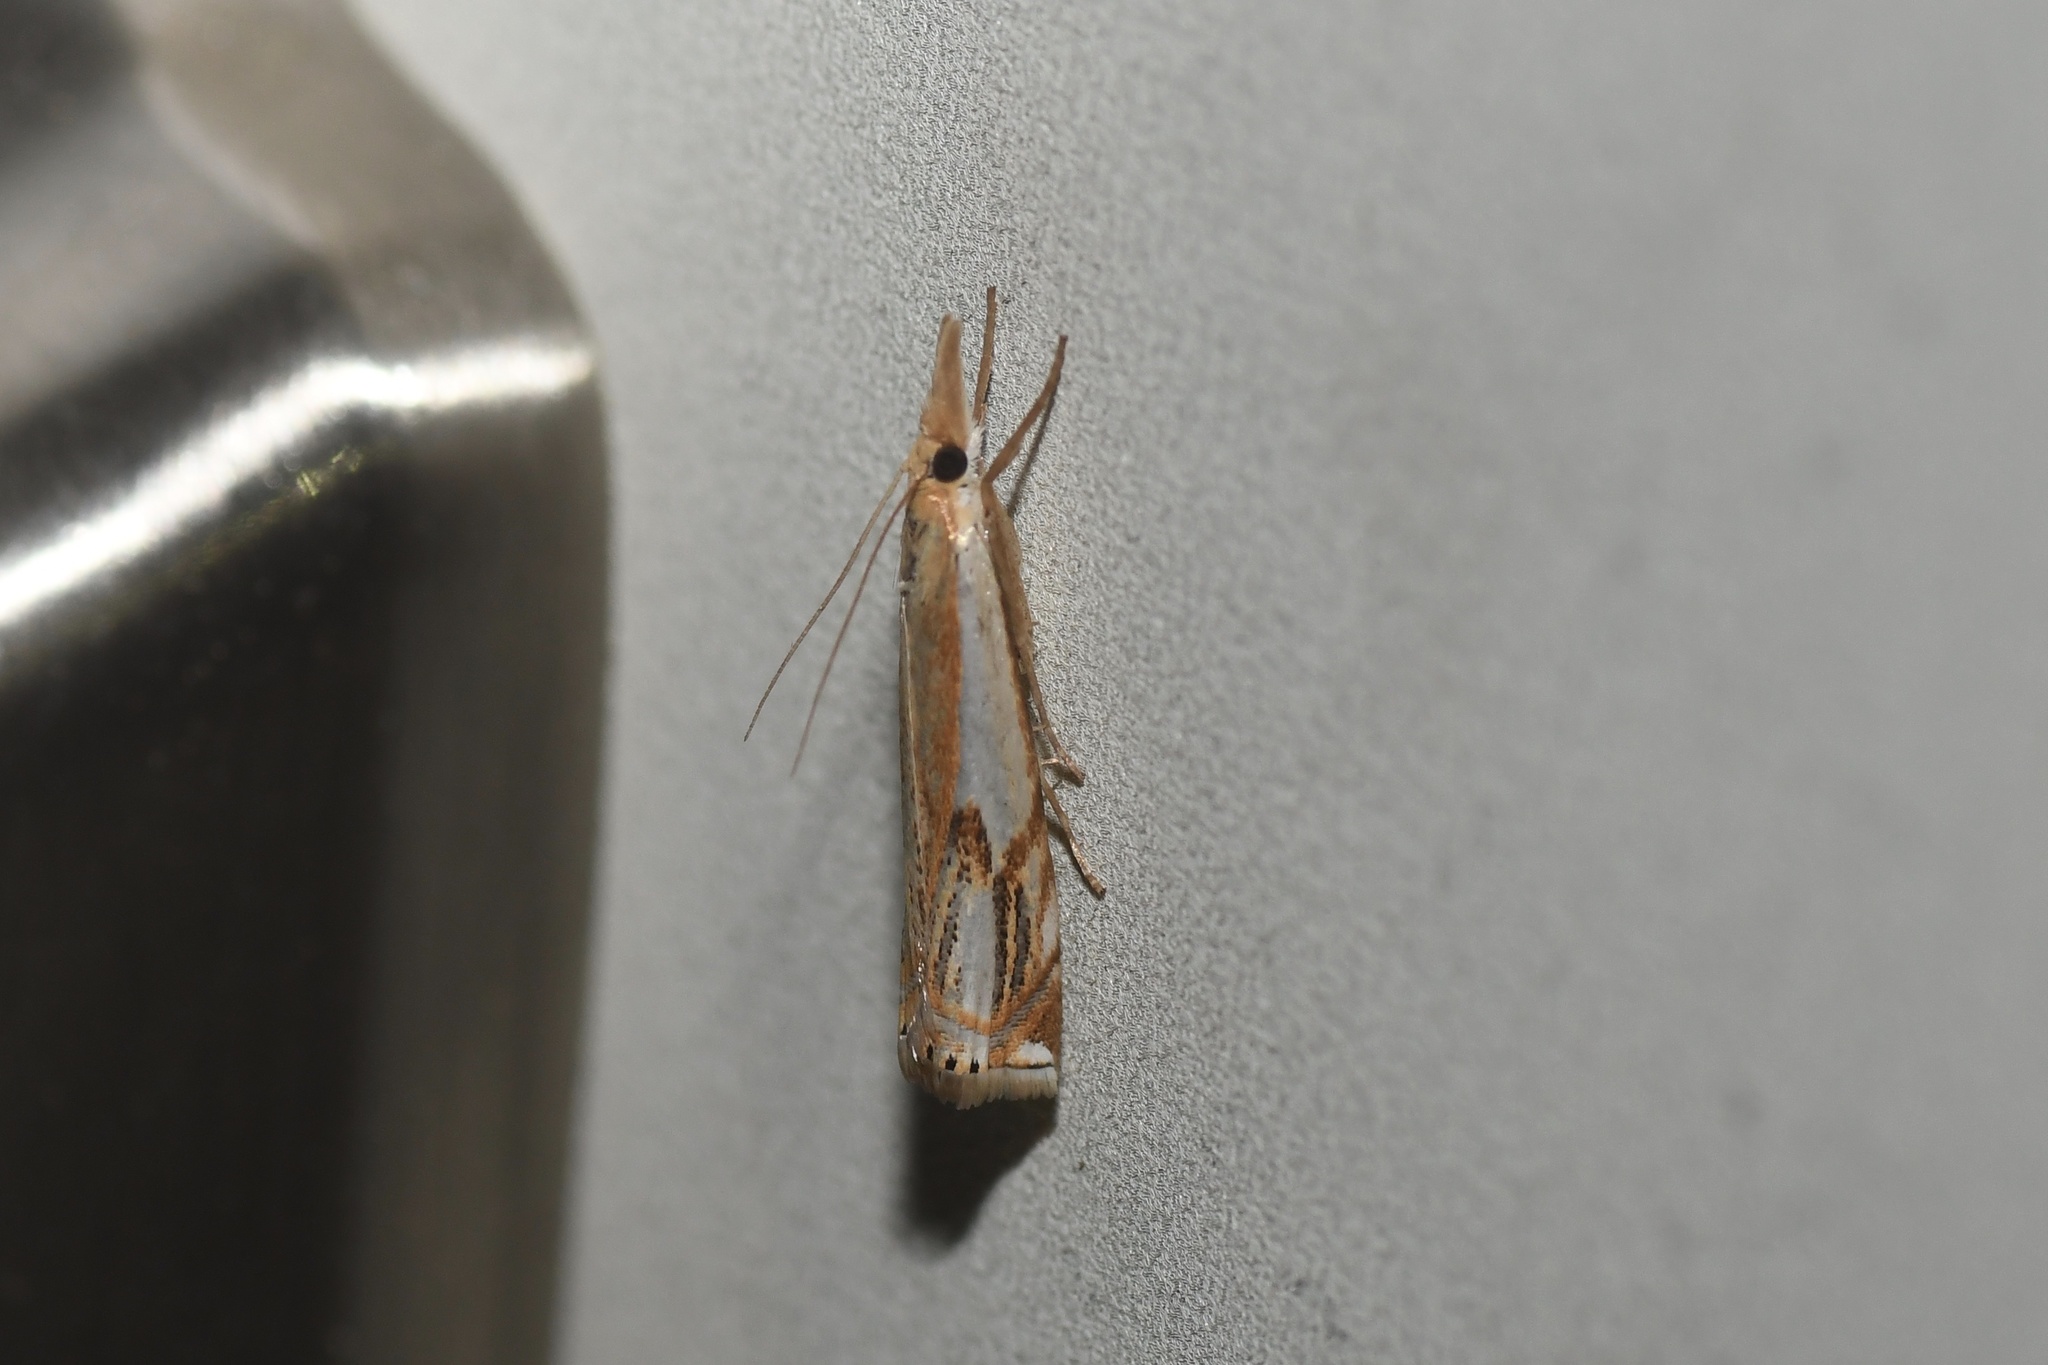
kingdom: Animalia
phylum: Arthropoda
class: Insecta
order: Lepidoptera
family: Crambidae
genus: Crambus
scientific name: Crambus agitatellus
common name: Double-banded grass-veneer
